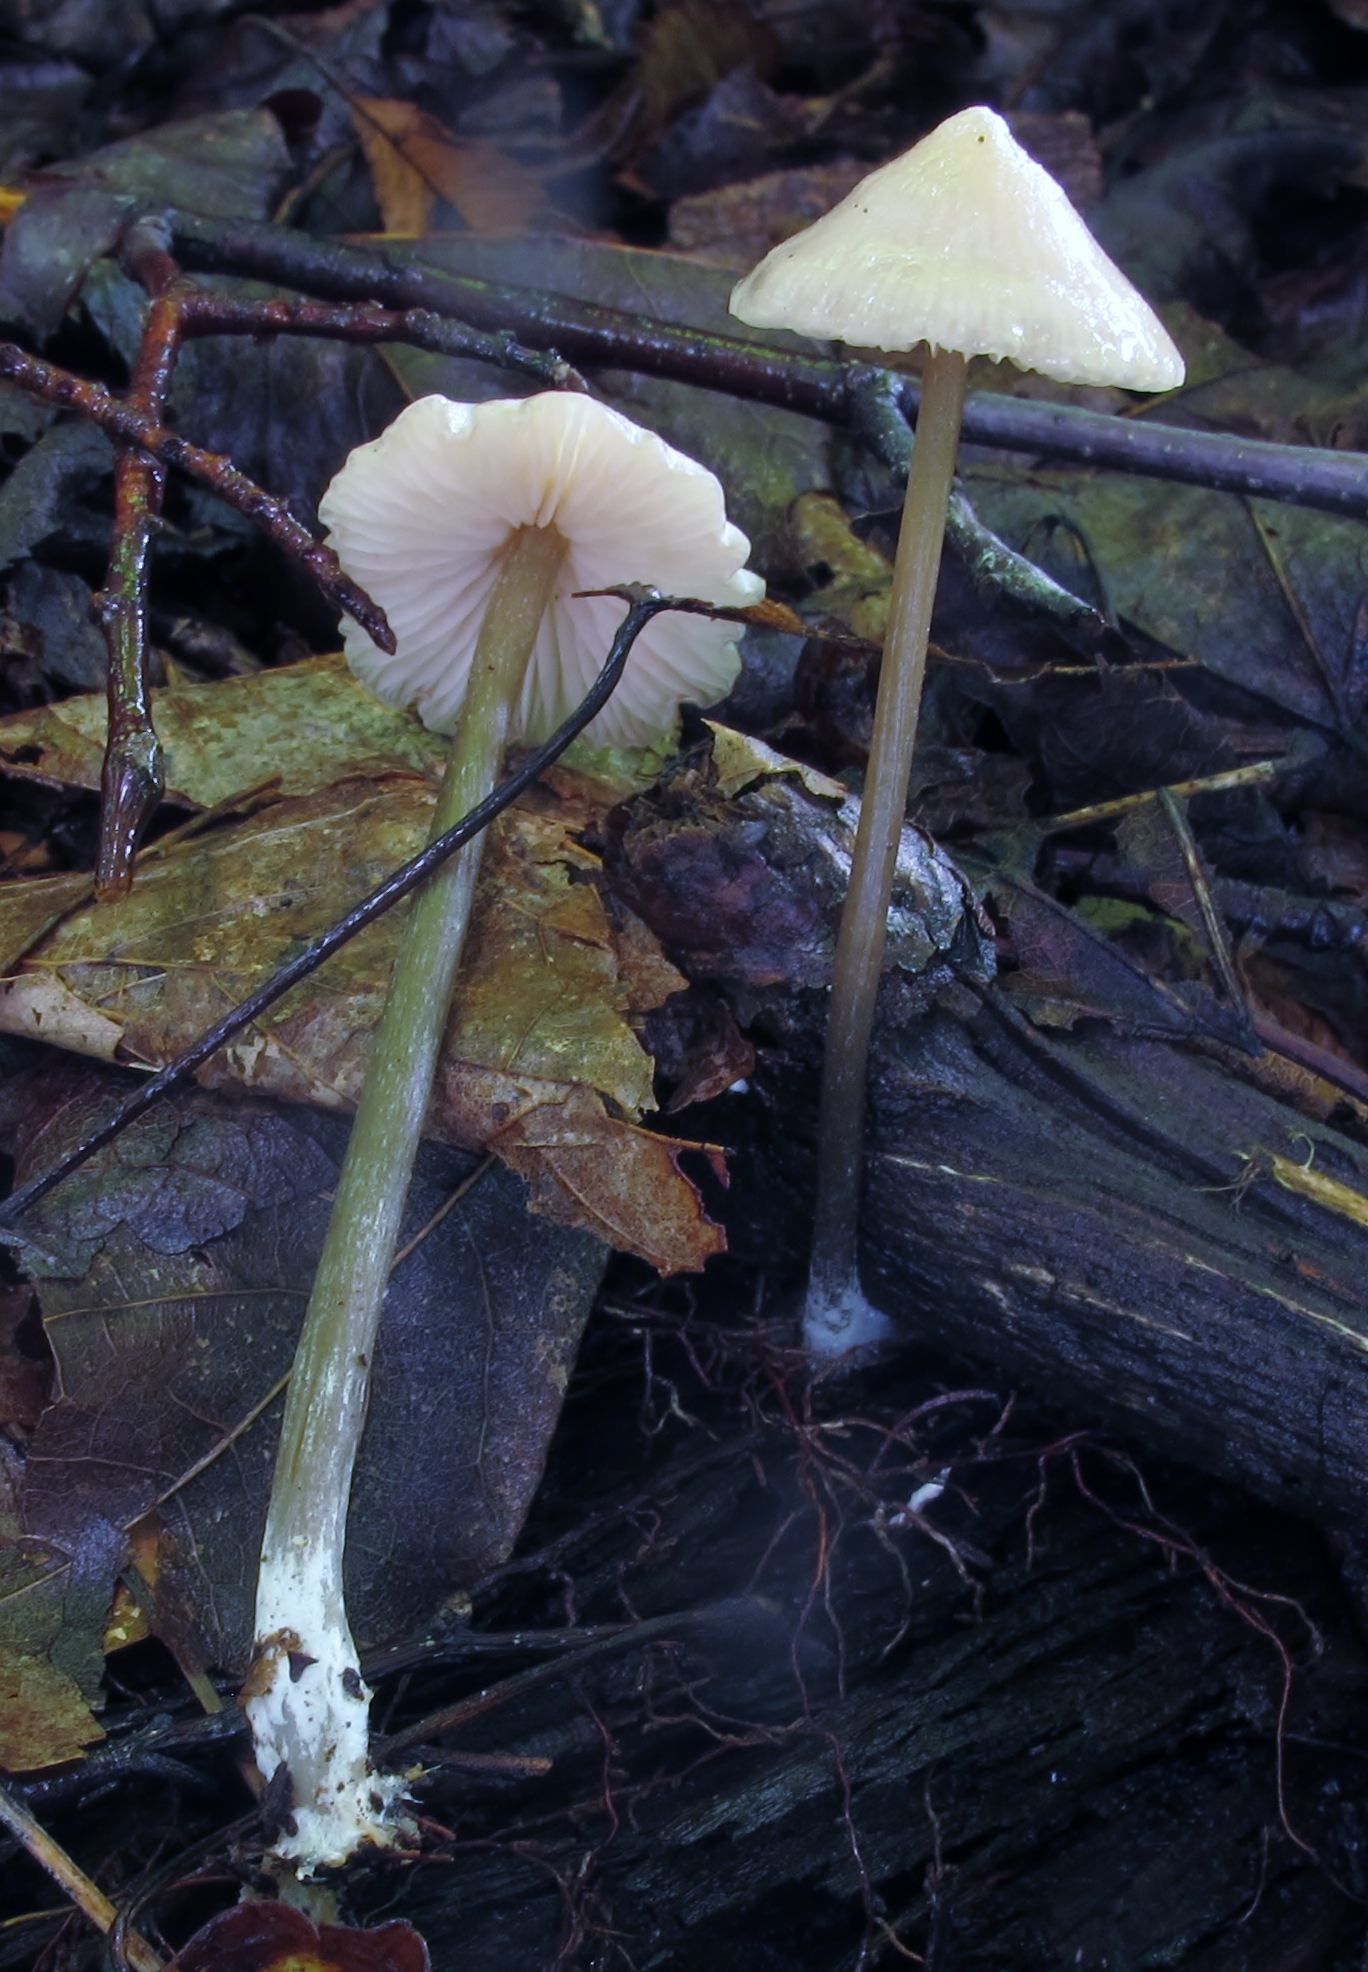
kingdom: Fungi
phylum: Basidiomycota
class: Agaricomycetes
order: Agaricales
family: Entolomataceae
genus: Entoloma
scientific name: Entoloma conicum
